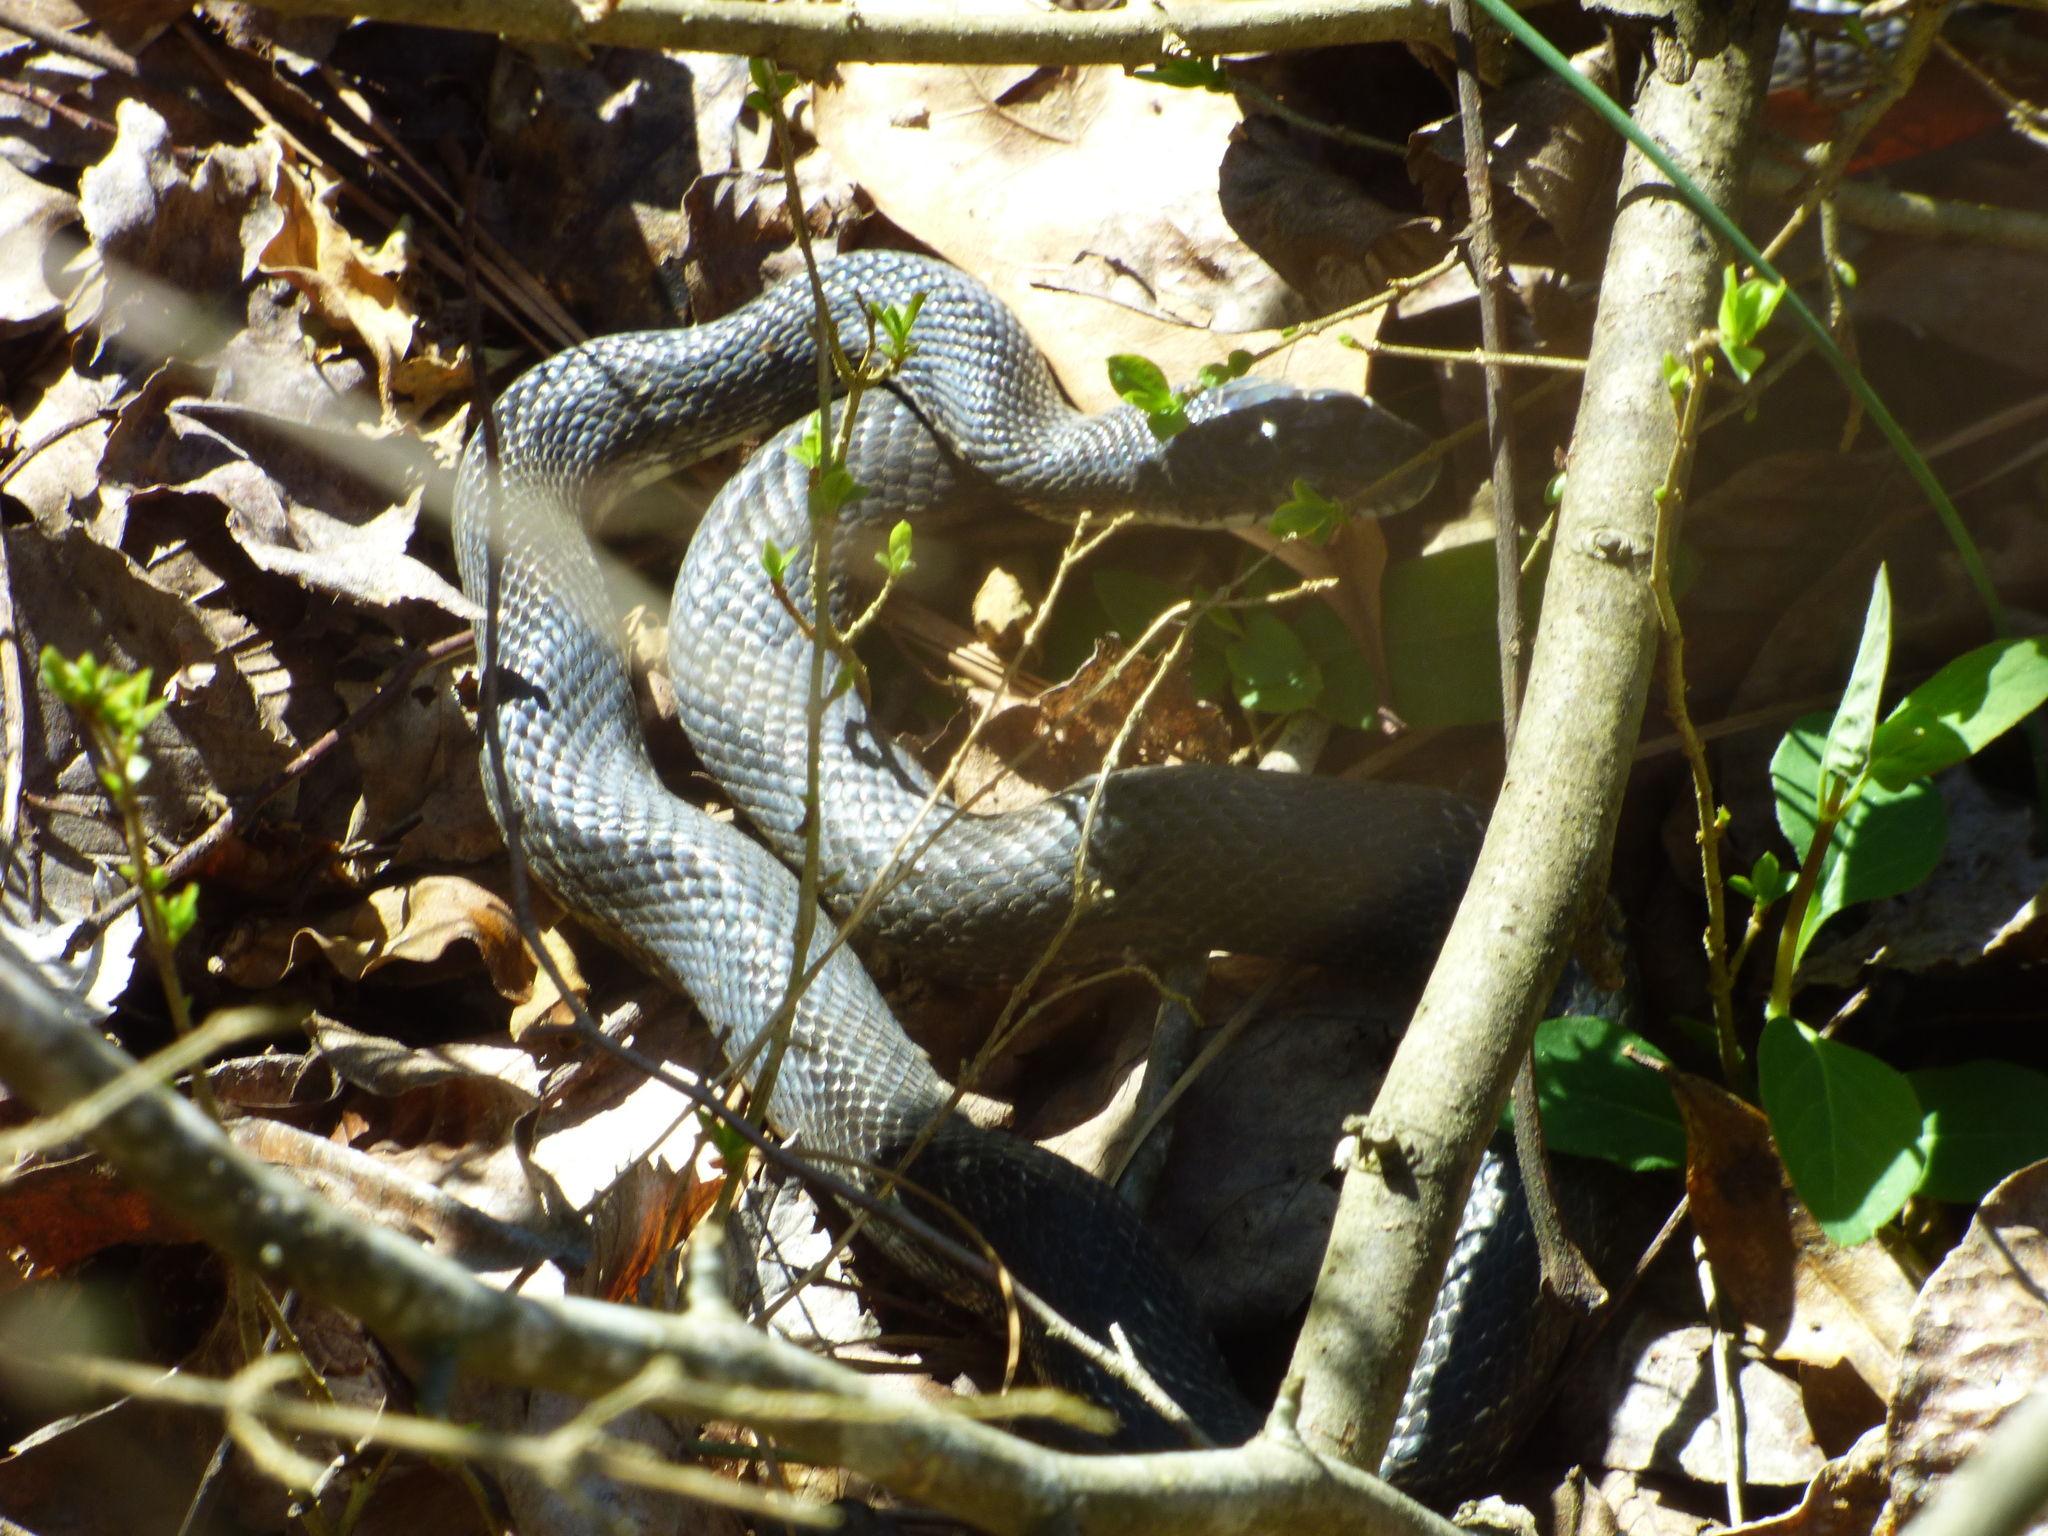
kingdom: Animalia
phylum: Chordata
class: Squamata
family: Colubridae
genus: Pantherophis
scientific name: Pantherophis alleghaniensis
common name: Eastern rat snake
